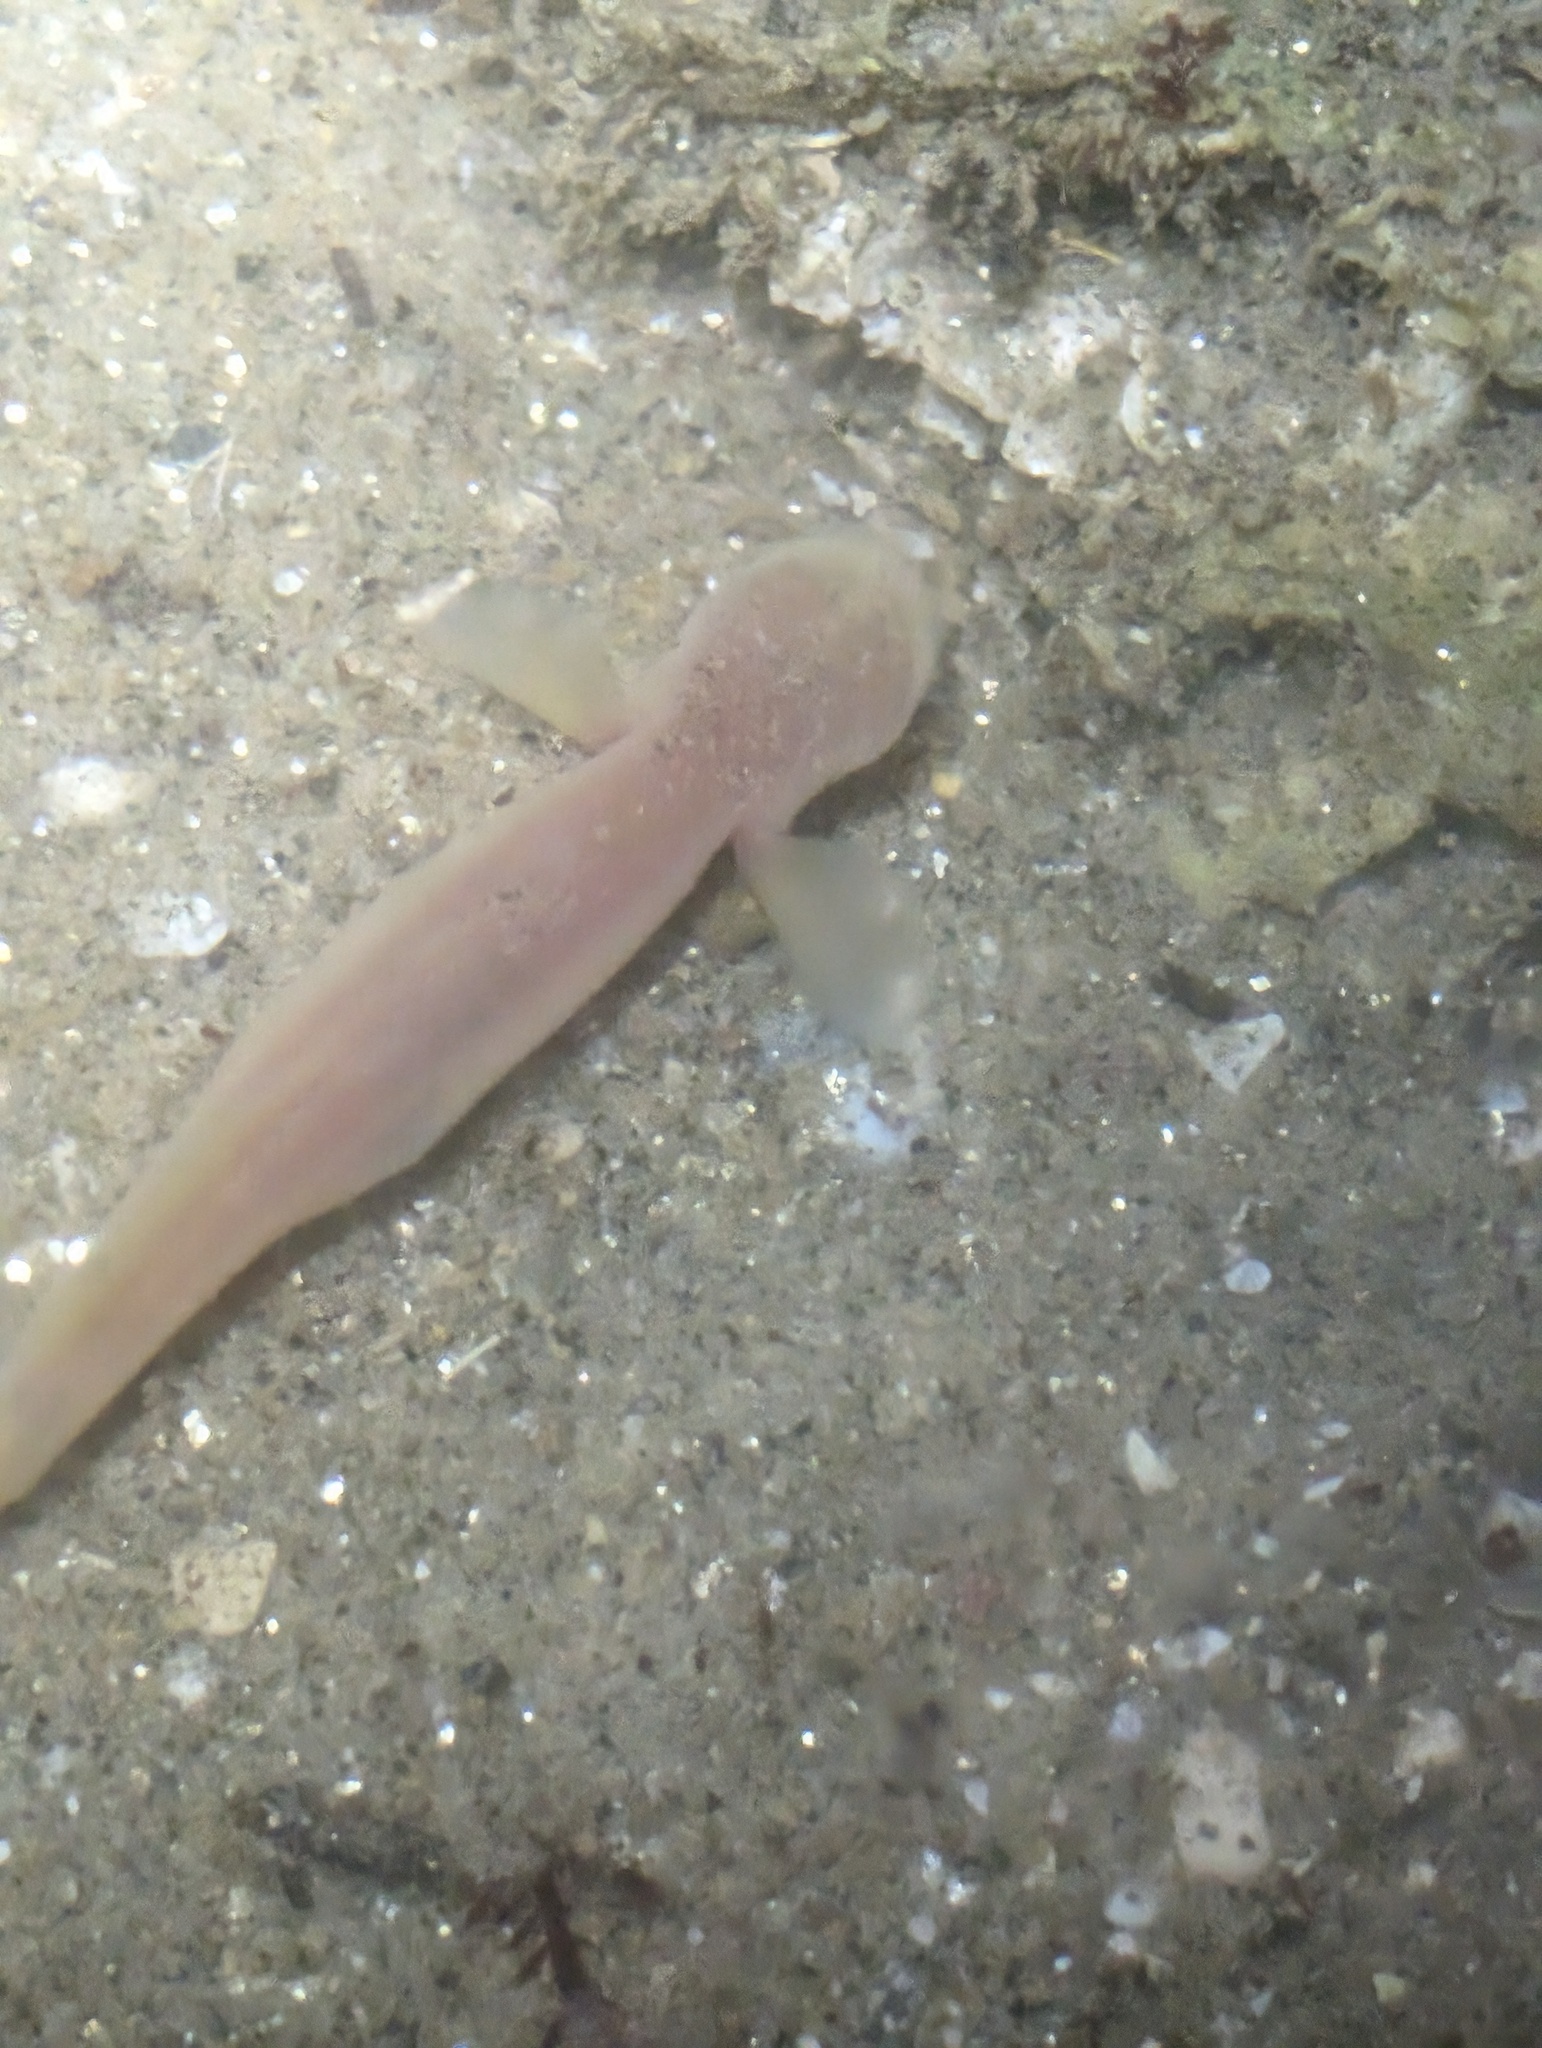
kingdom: Animalia
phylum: Chordata
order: Perciformes
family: Gobiidae
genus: Typhlogobius
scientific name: Typhlogobius californiensis
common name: Blind goby
